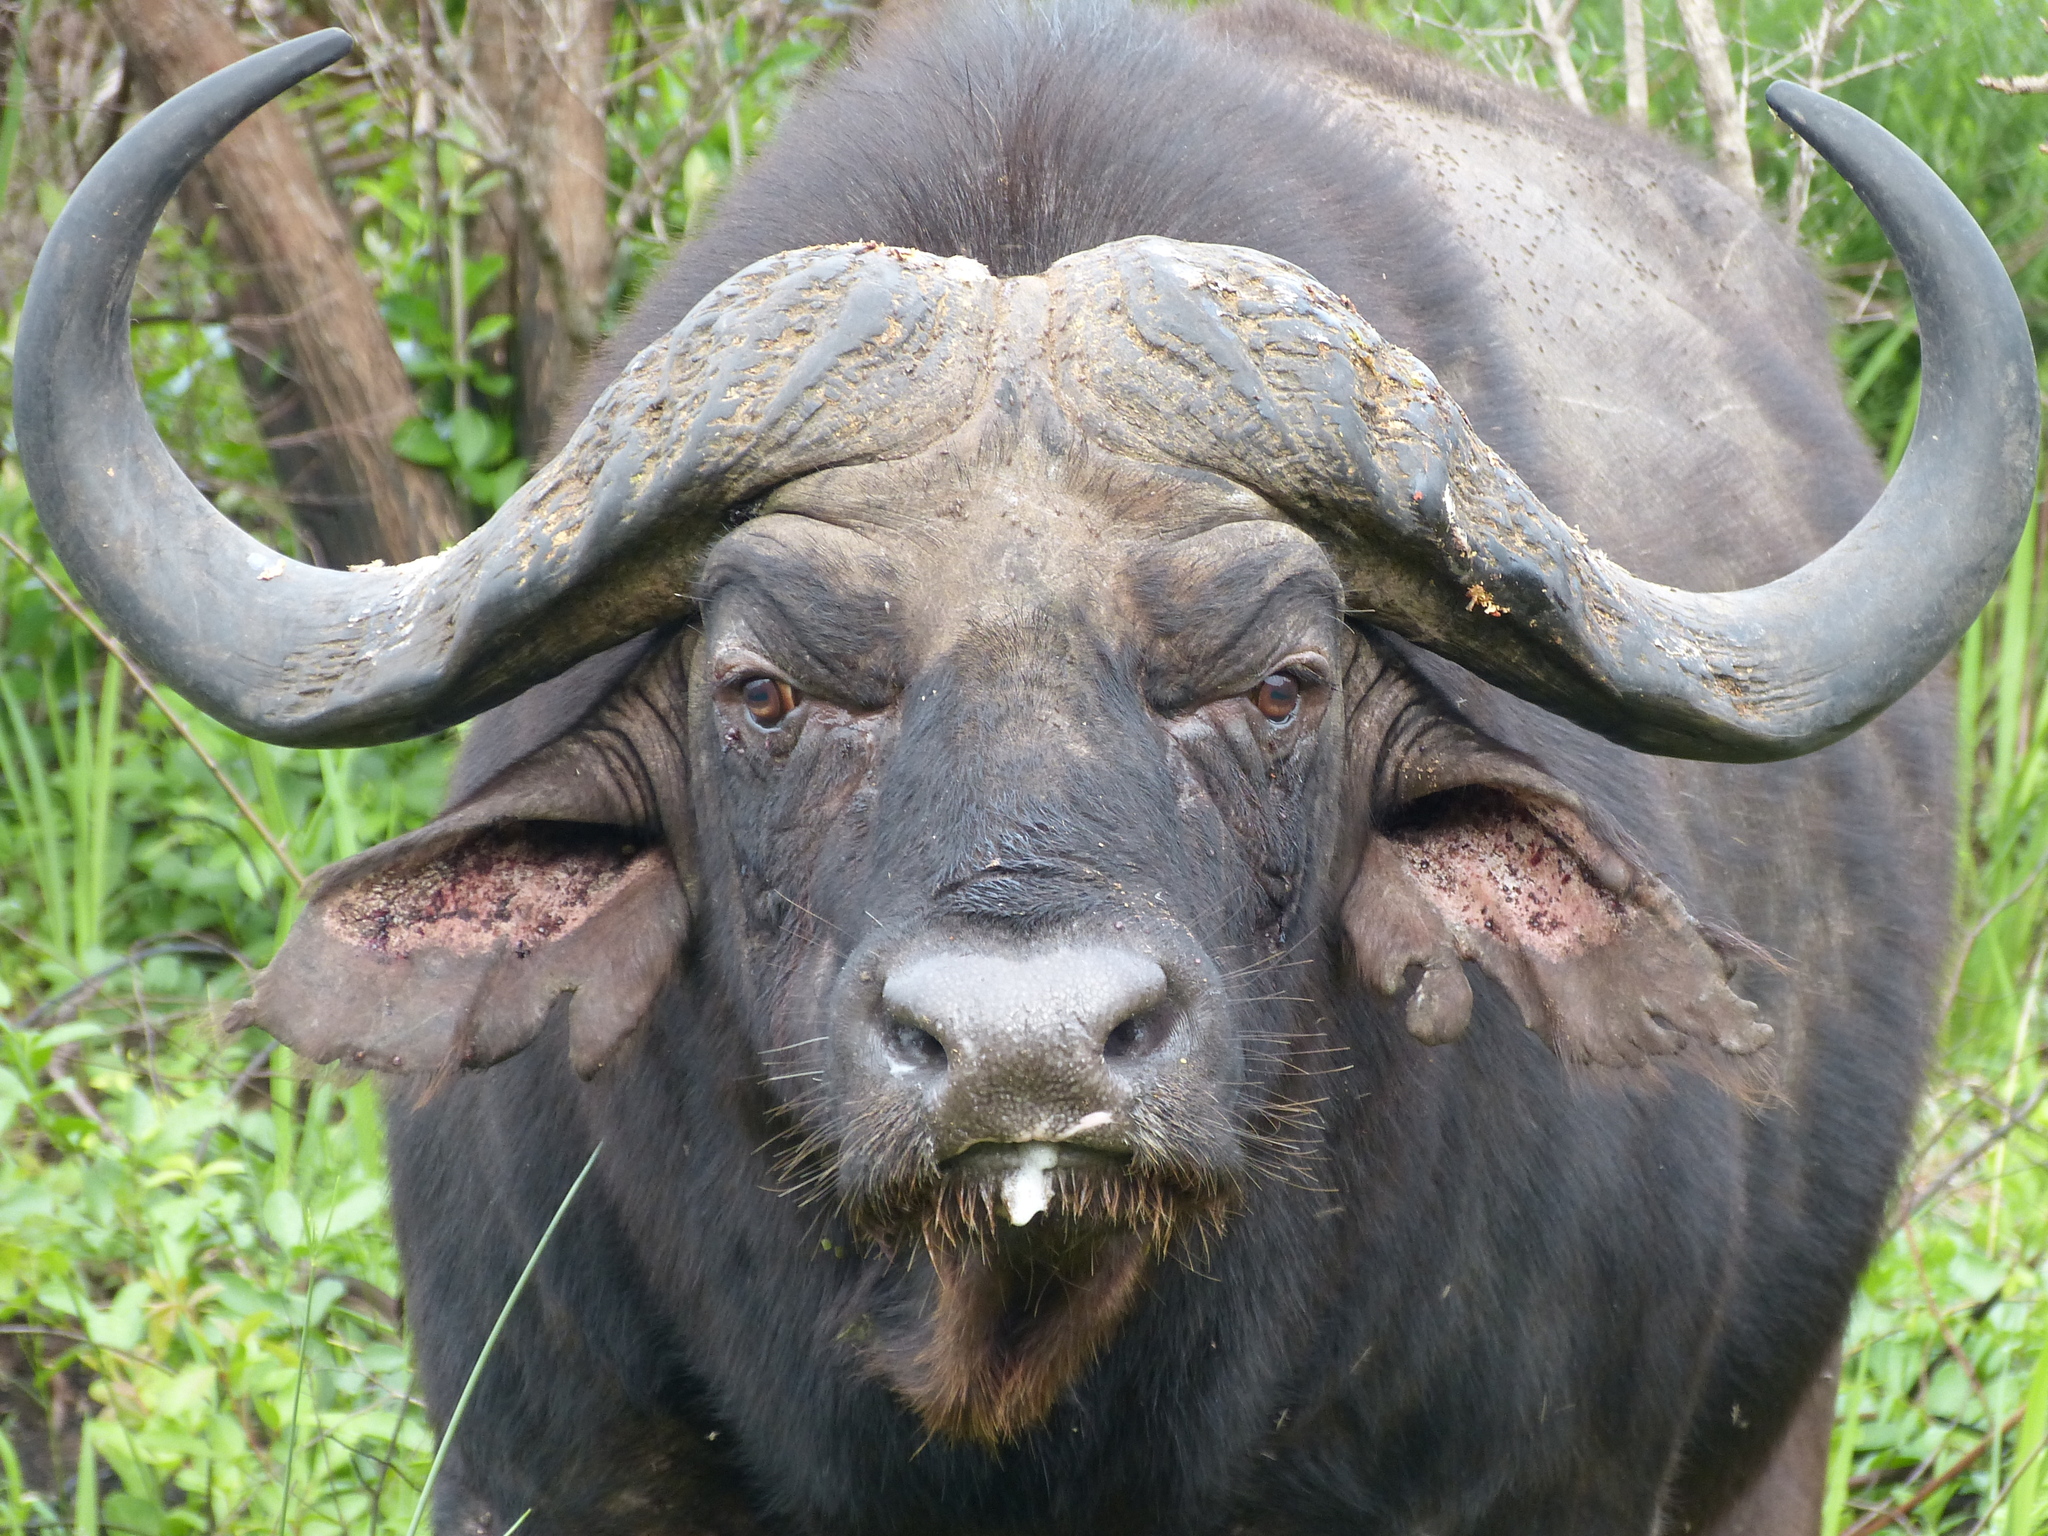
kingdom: Animalia
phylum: Chordata
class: Mammalia
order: Artiodactyla
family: Bovidae
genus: Syncerus
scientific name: Syncerus caffer
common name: African buffalo
